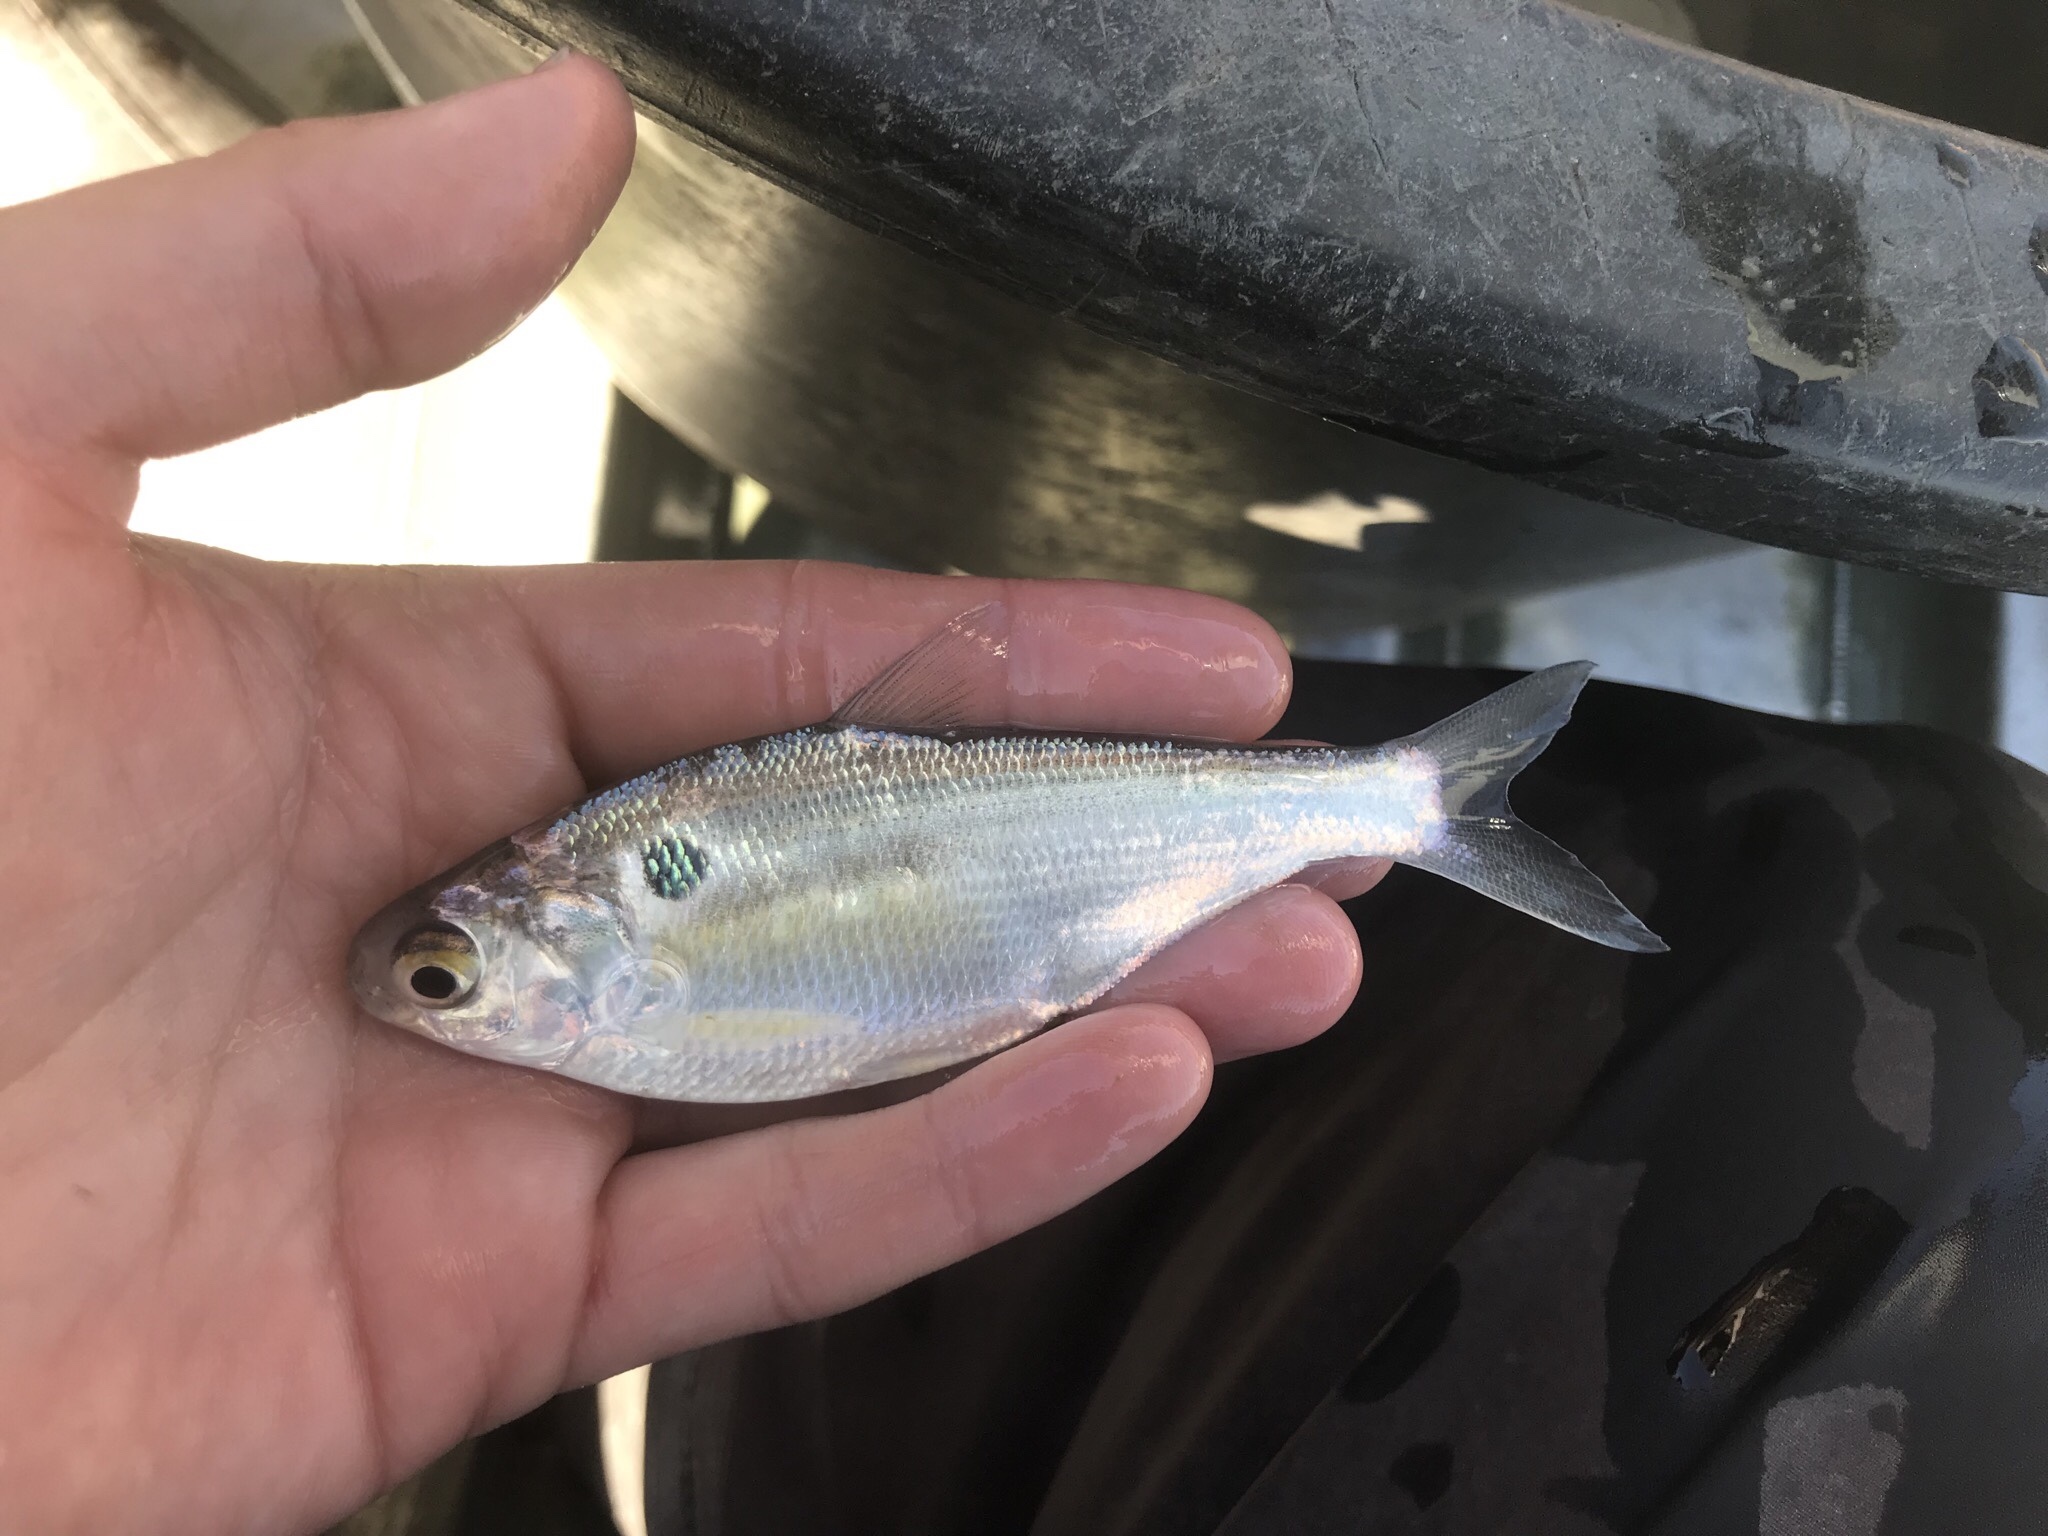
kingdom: Animalia
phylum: Chordata
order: Clupeiformes
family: Clupeidae
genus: Dorosoma
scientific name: Dorosoma cepedianum
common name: Gizzard shad
